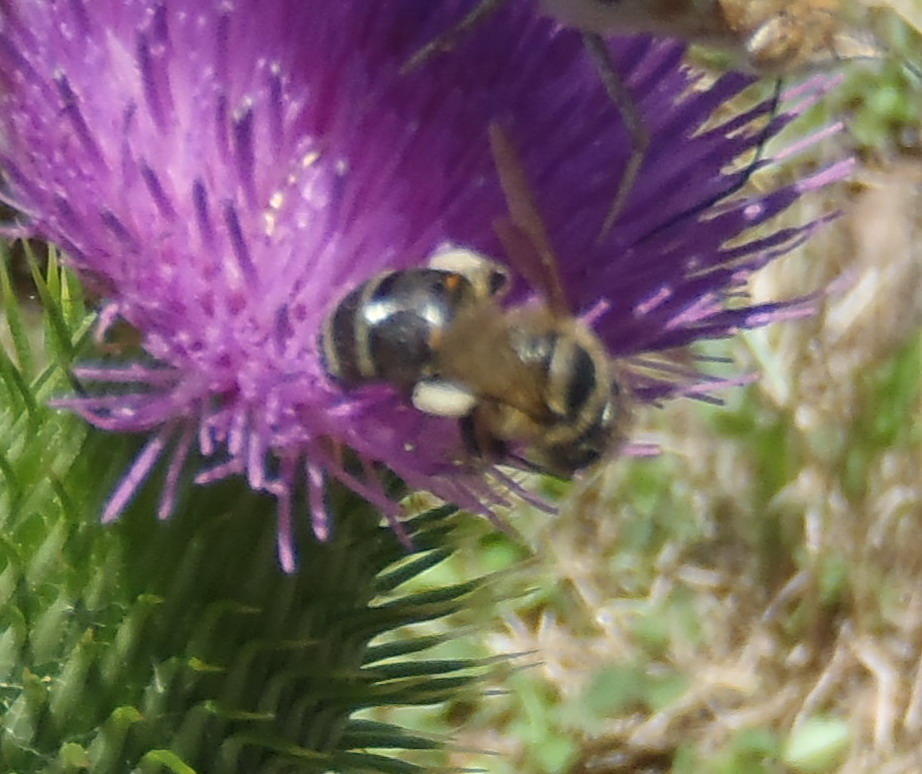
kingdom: Animalia
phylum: Arthropoda
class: Insecta
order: Hymenoptera
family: Apidae
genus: Apis
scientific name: Apis mellifera
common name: Honey bee
